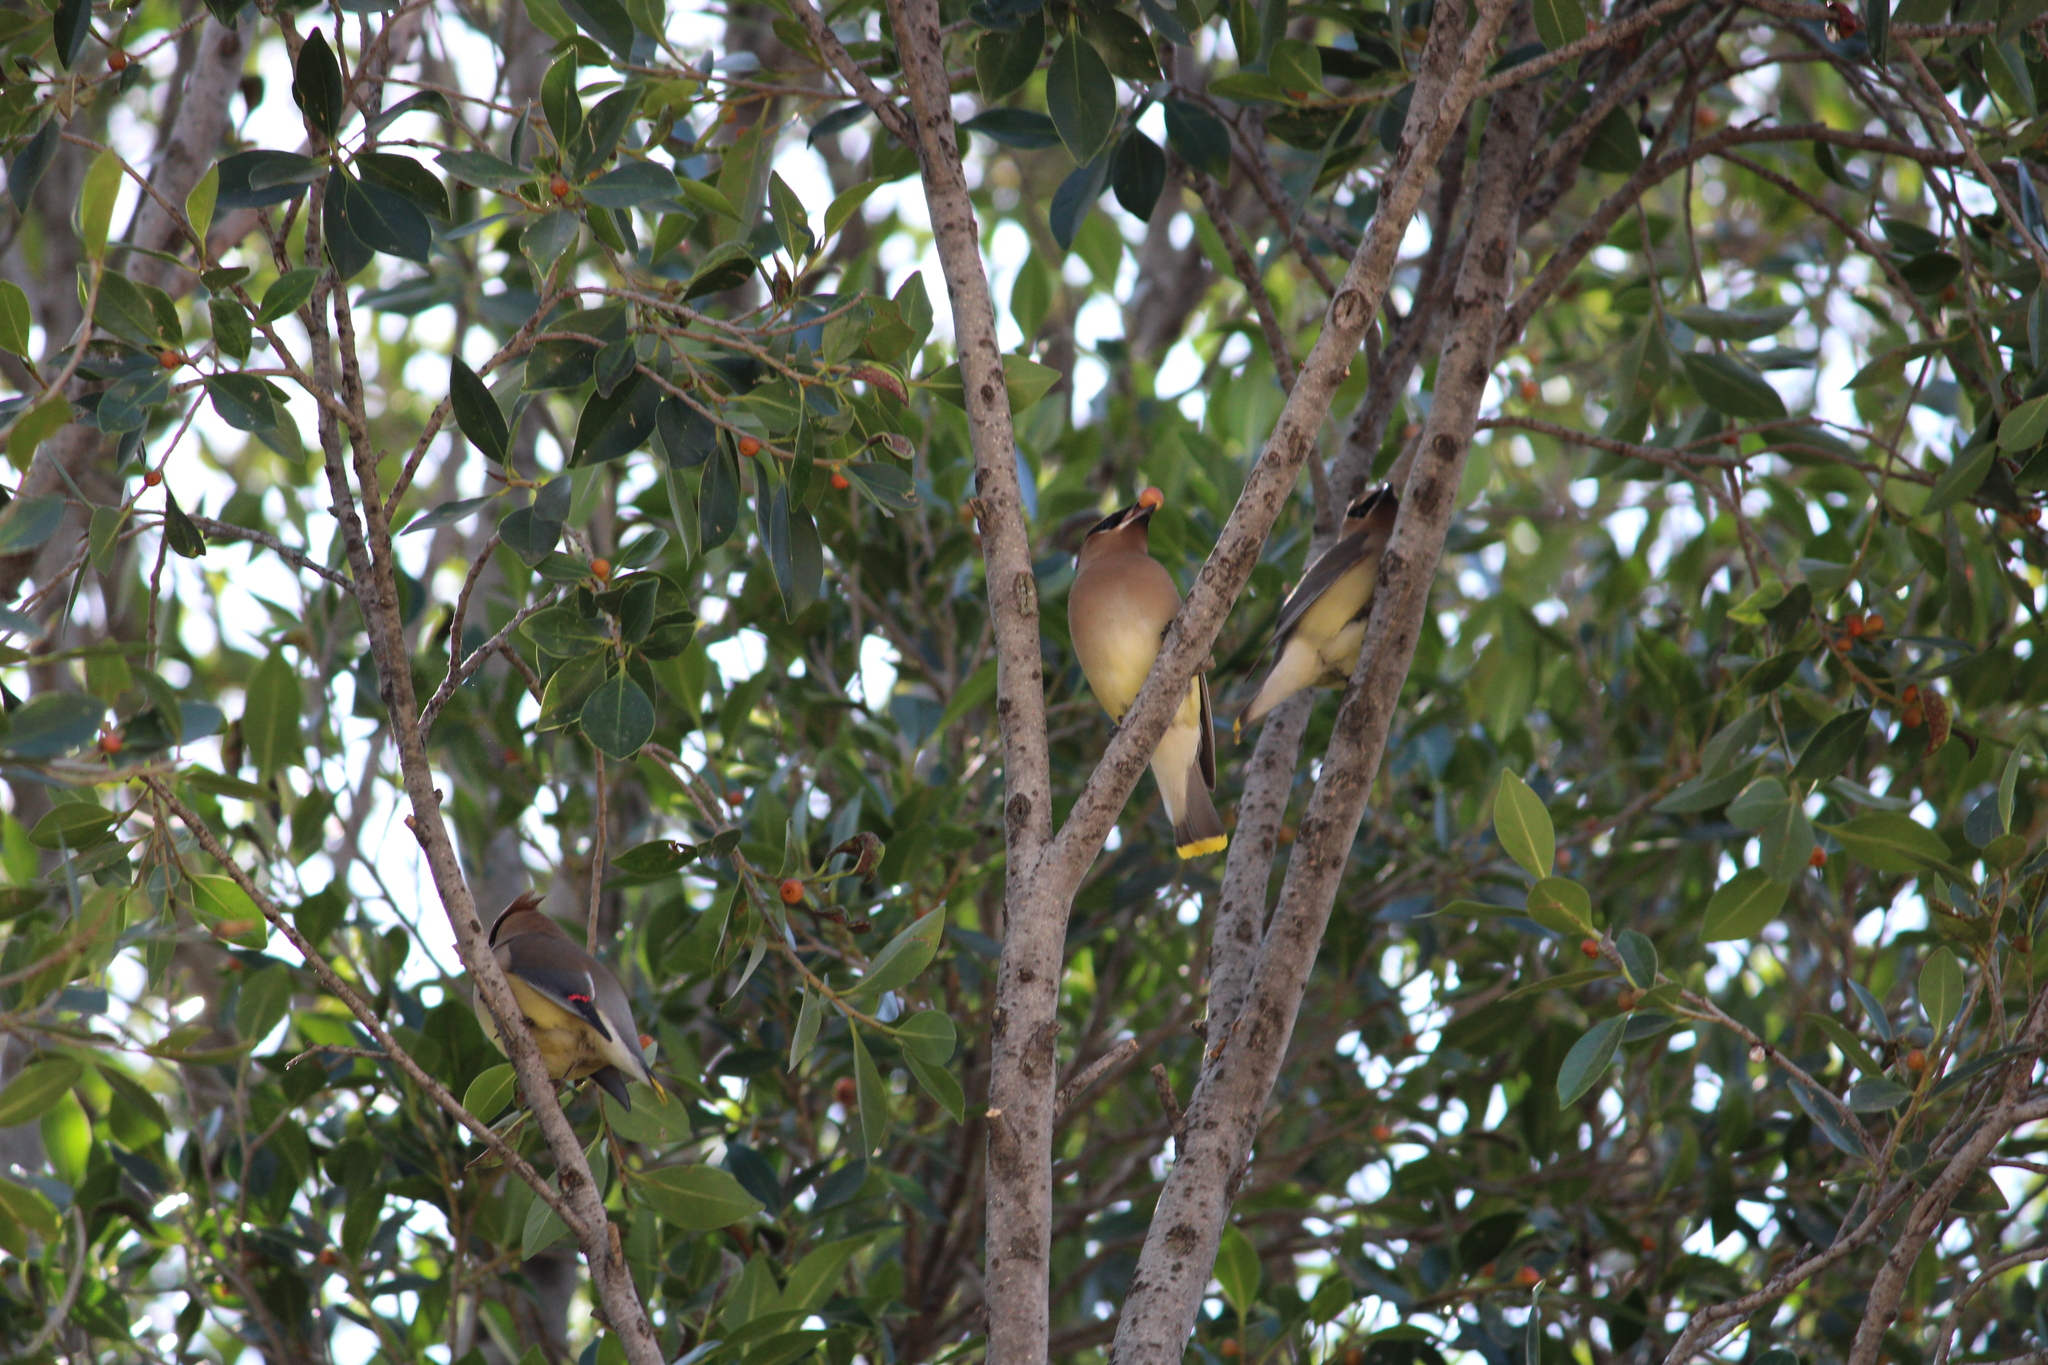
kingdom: Animalia
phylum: Chordata
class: Aves
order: Passeriformes
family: Bombycillidae
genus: Bombycilla
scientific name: Bombycilla cedrorum
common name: Cedar waxwing
